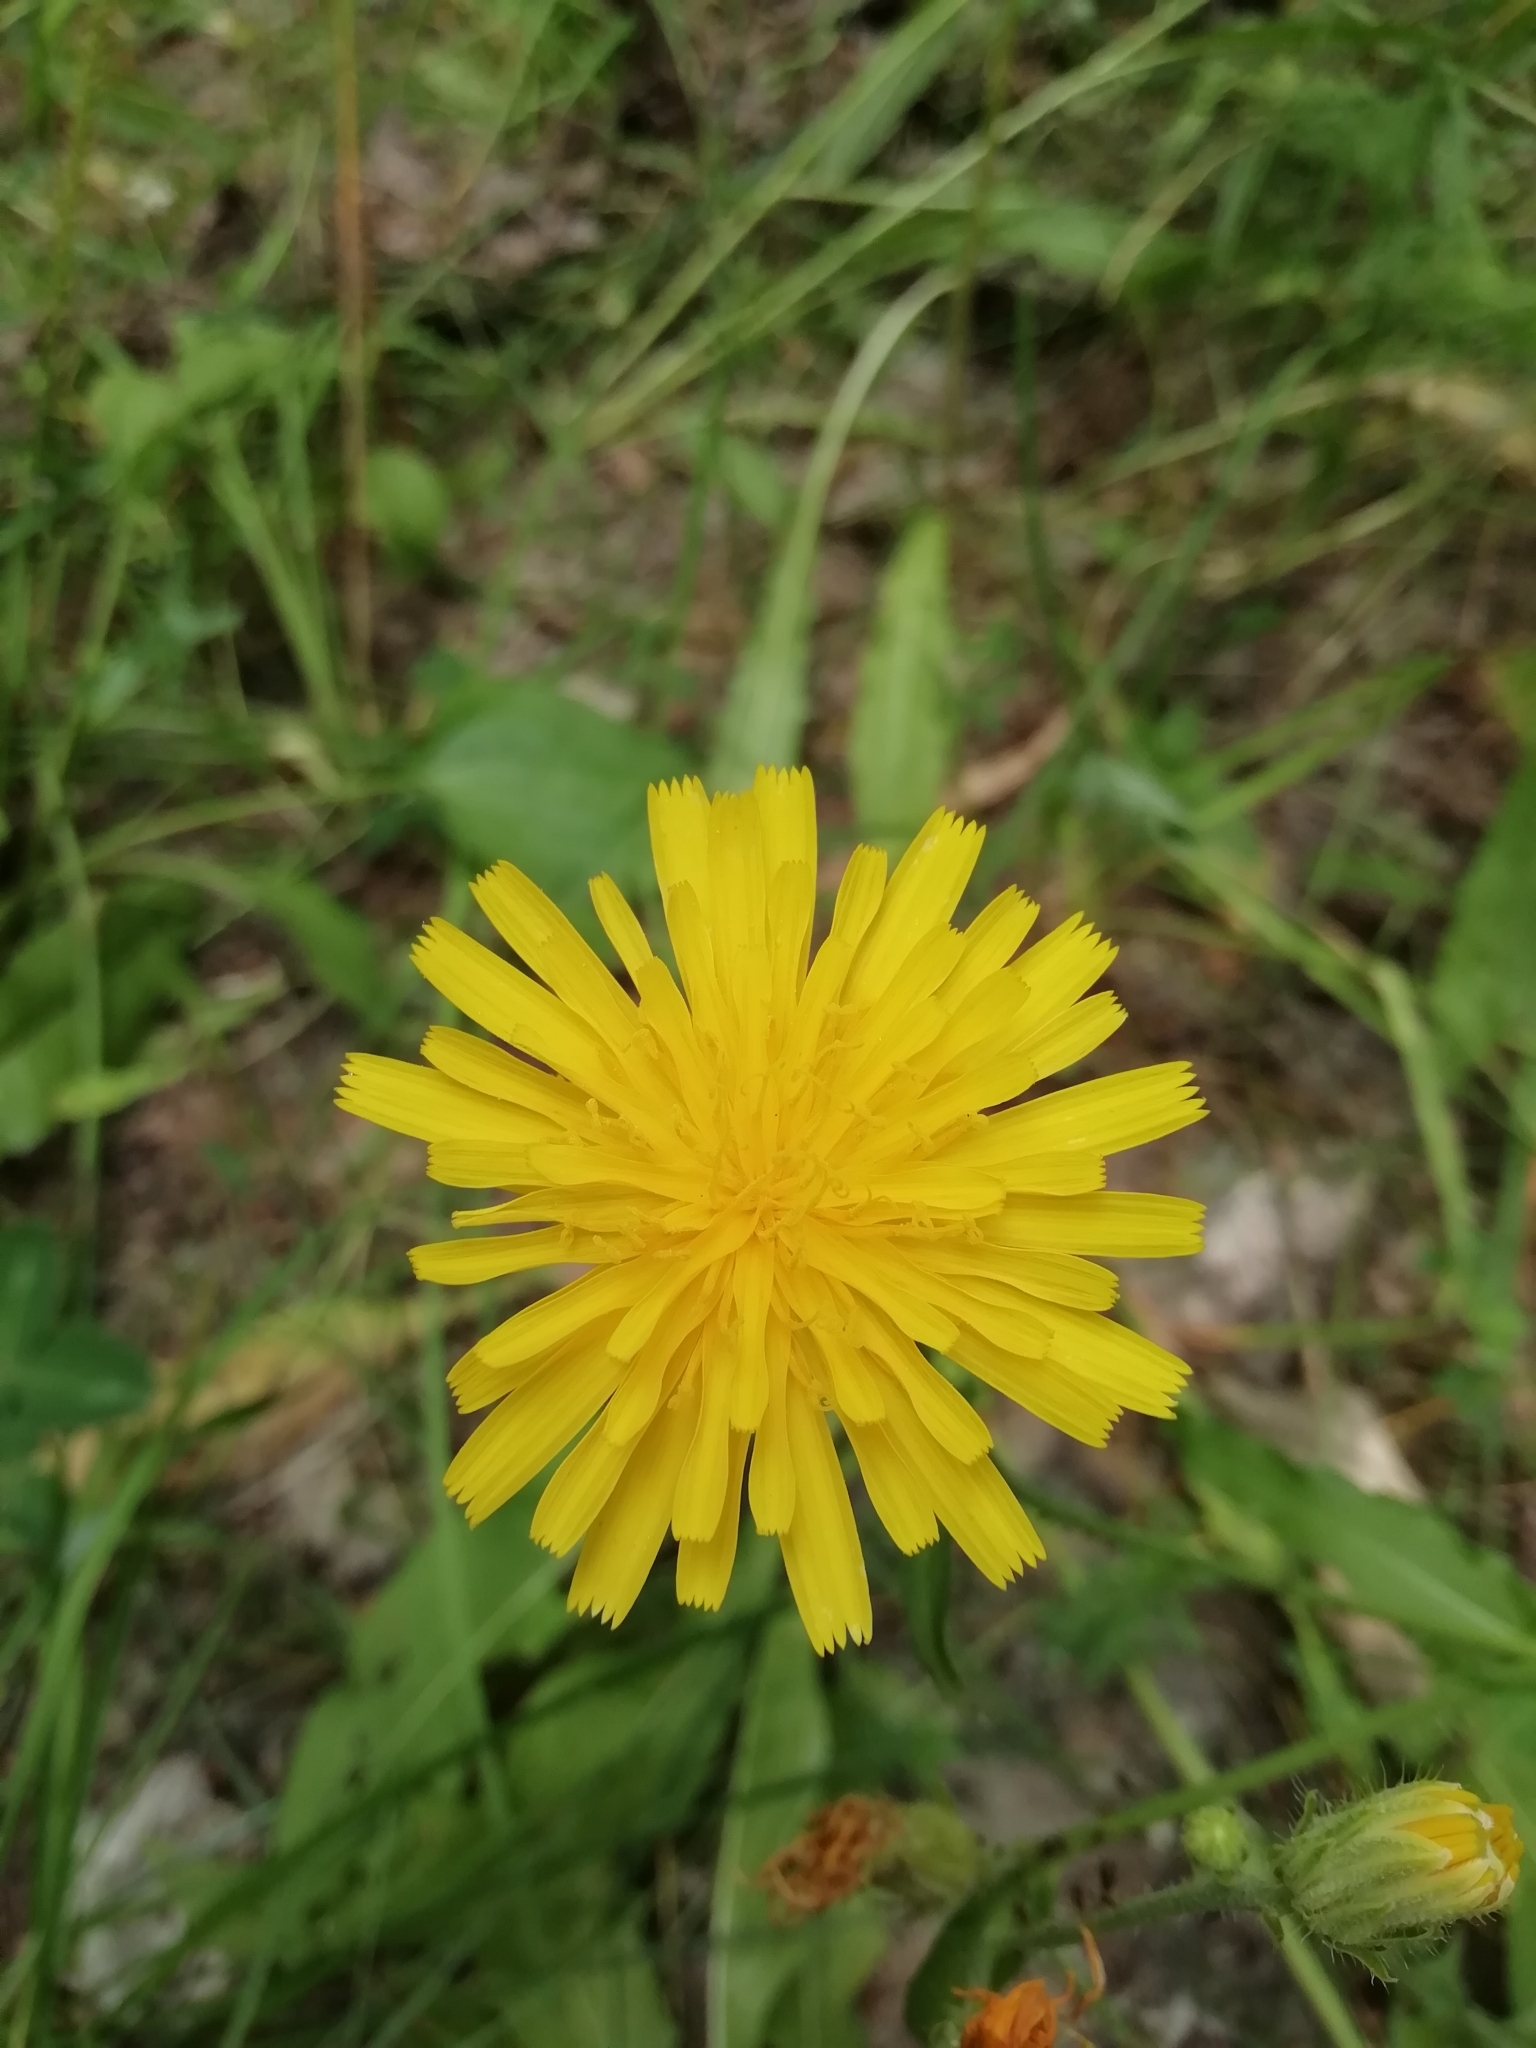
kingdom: Plantae
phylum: Tracheophyta
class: Magnoliopsida
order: Asterales
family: Asteraceae
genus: Picris
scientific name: Picris hieracioides
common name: Hawkweed oxtongue
